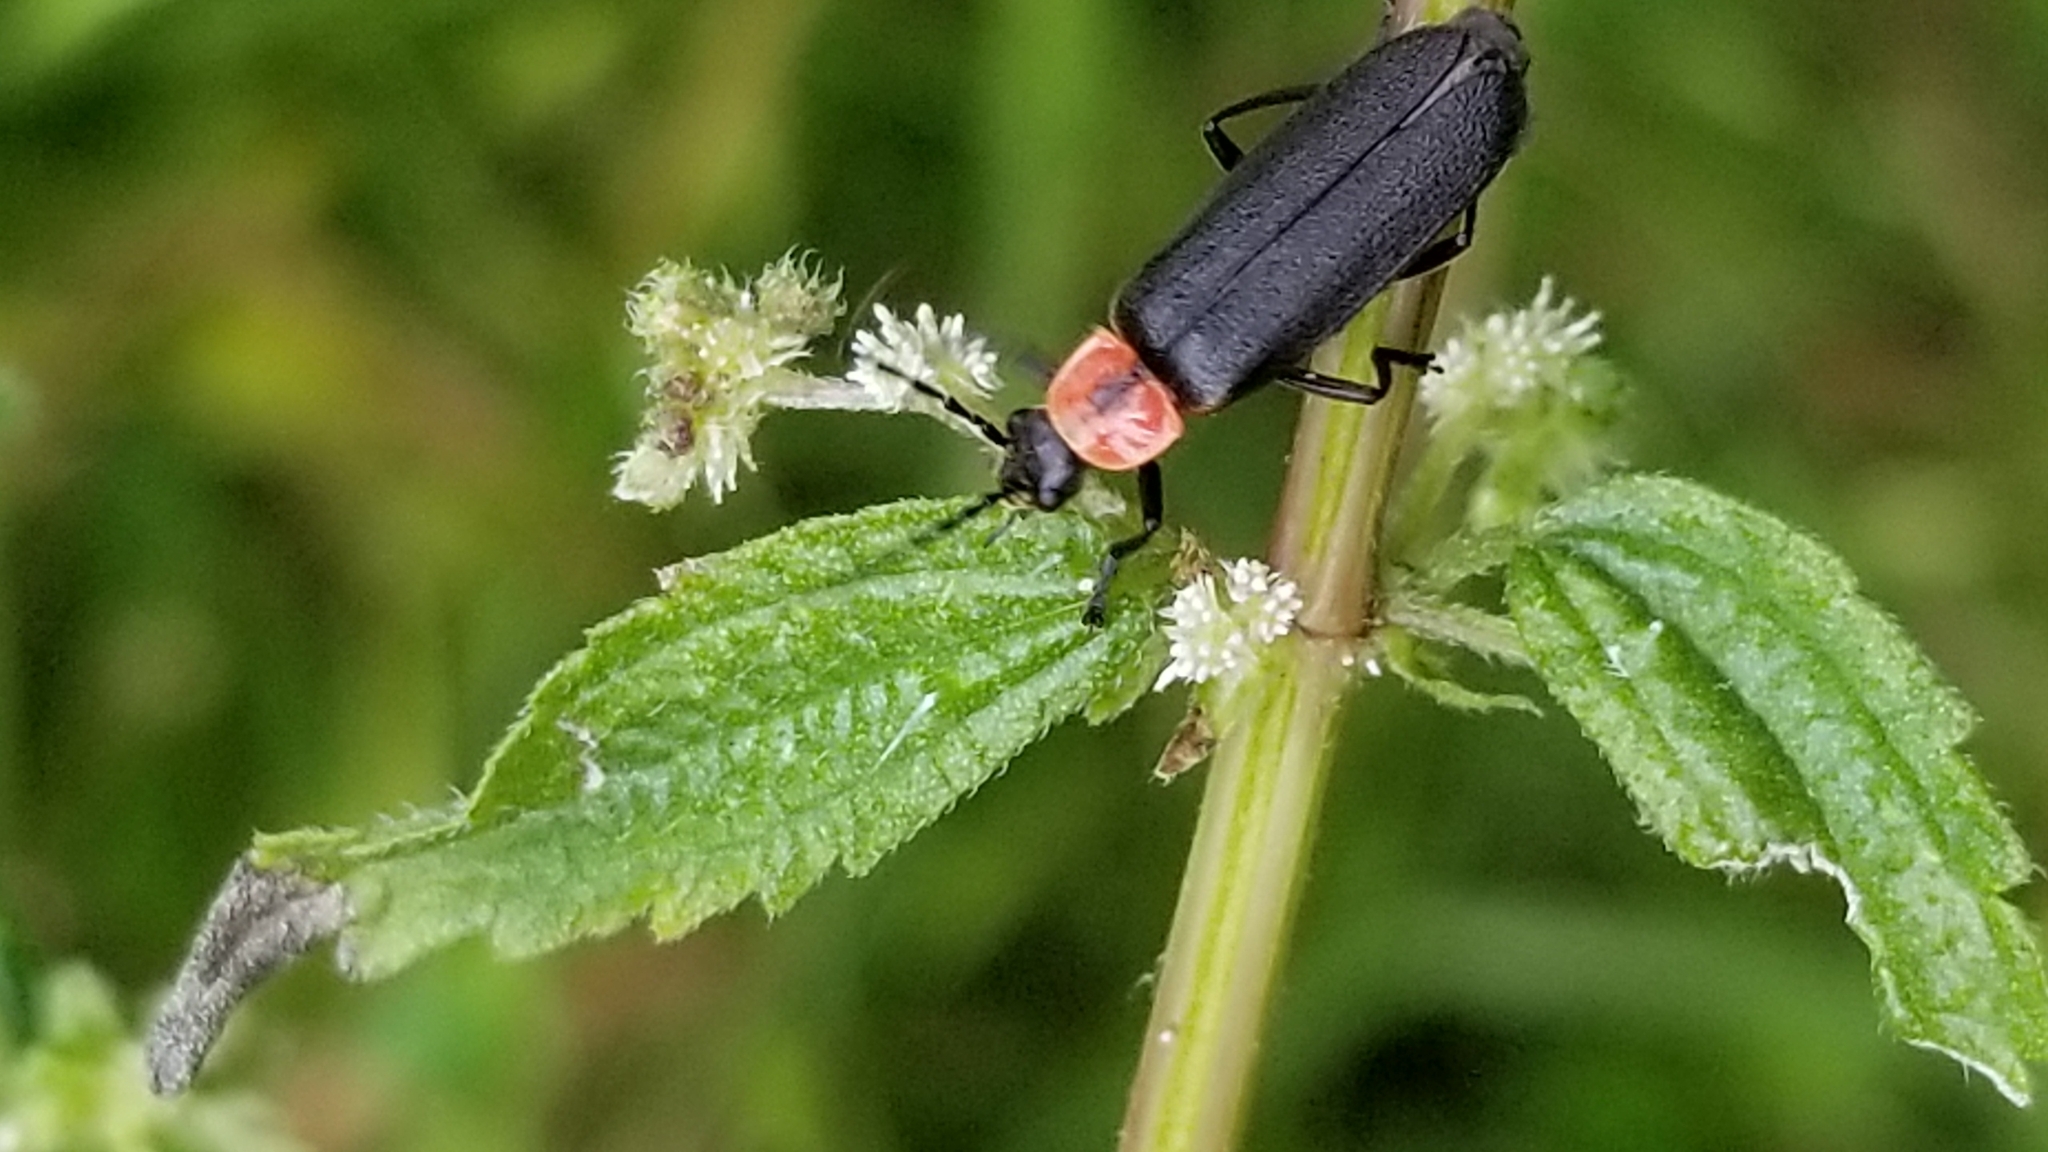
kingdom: Animalia
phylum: Arthropoda
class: Insecta
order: Coleoptera
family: Cantharidae
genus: Discodon
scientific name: Discodon planicolle
